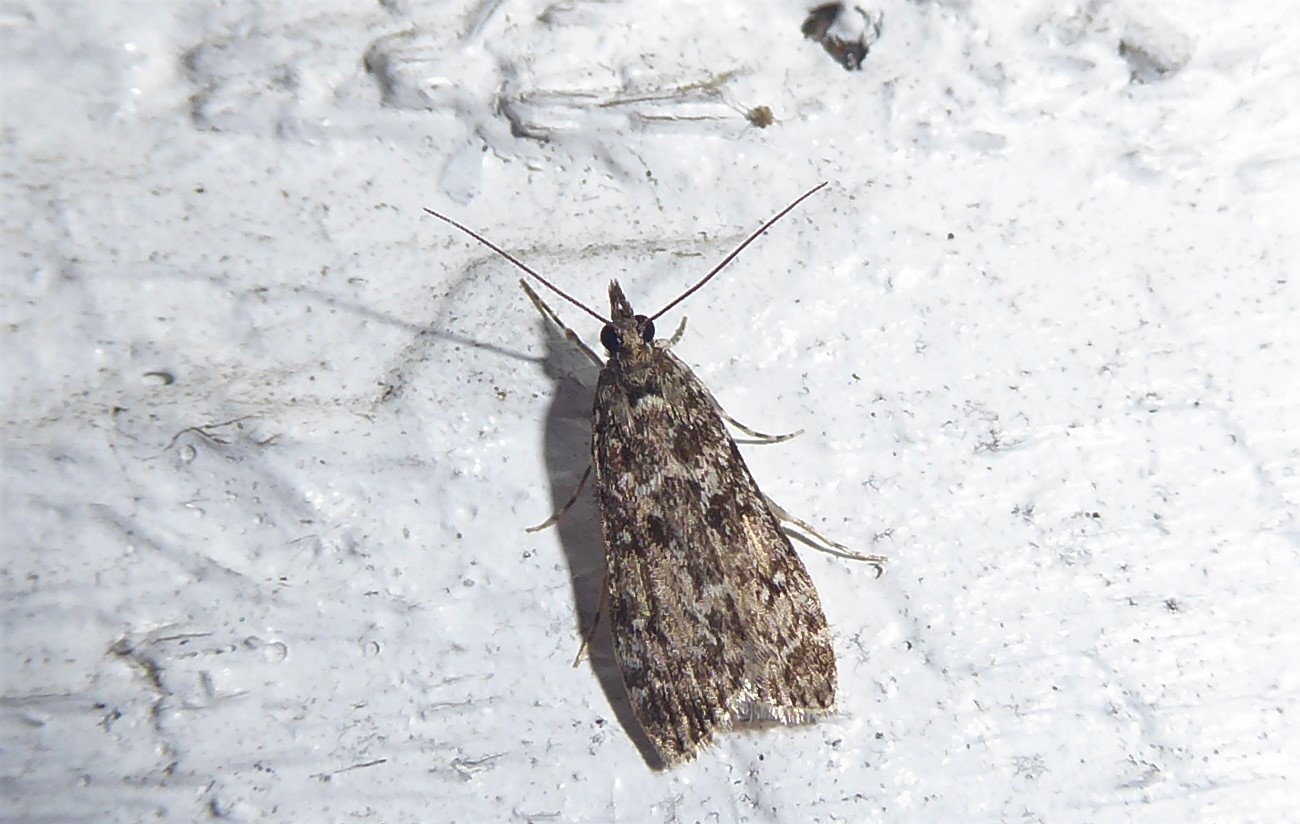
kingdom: Animalia
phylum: Arthropoda
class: Insecta
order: Lepidoptera
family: Crambidae
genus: Eudonia
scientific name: Eudonia philerga
